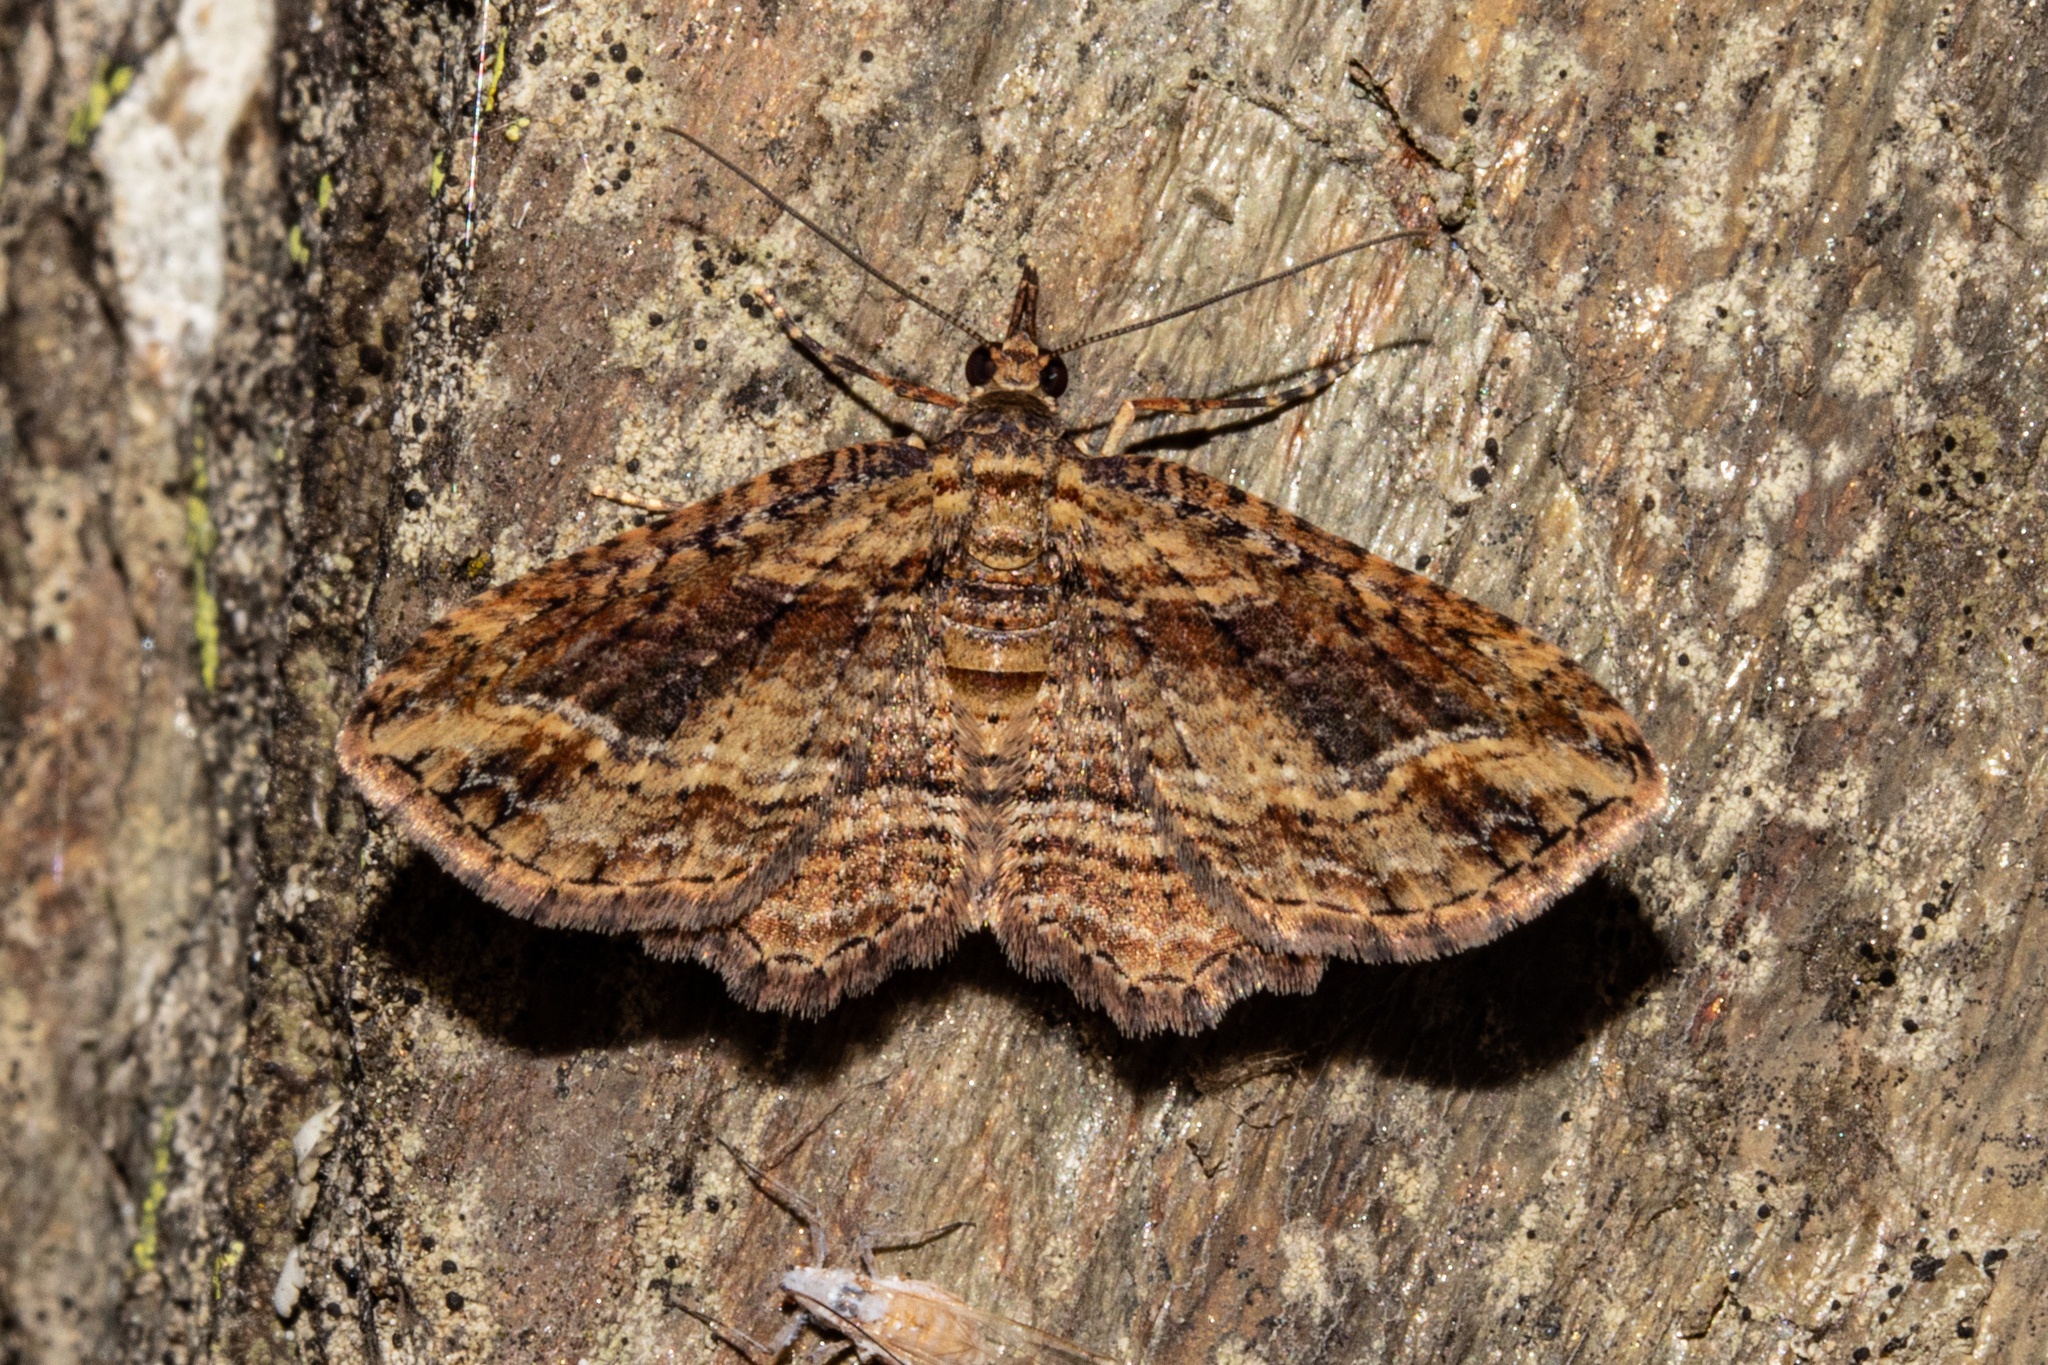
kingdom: Animalia
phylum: Arthropoda
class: Insecta
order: Lepidoptera
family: Geometridae
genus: Chloroclystis
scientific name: Chloroclystis filata
